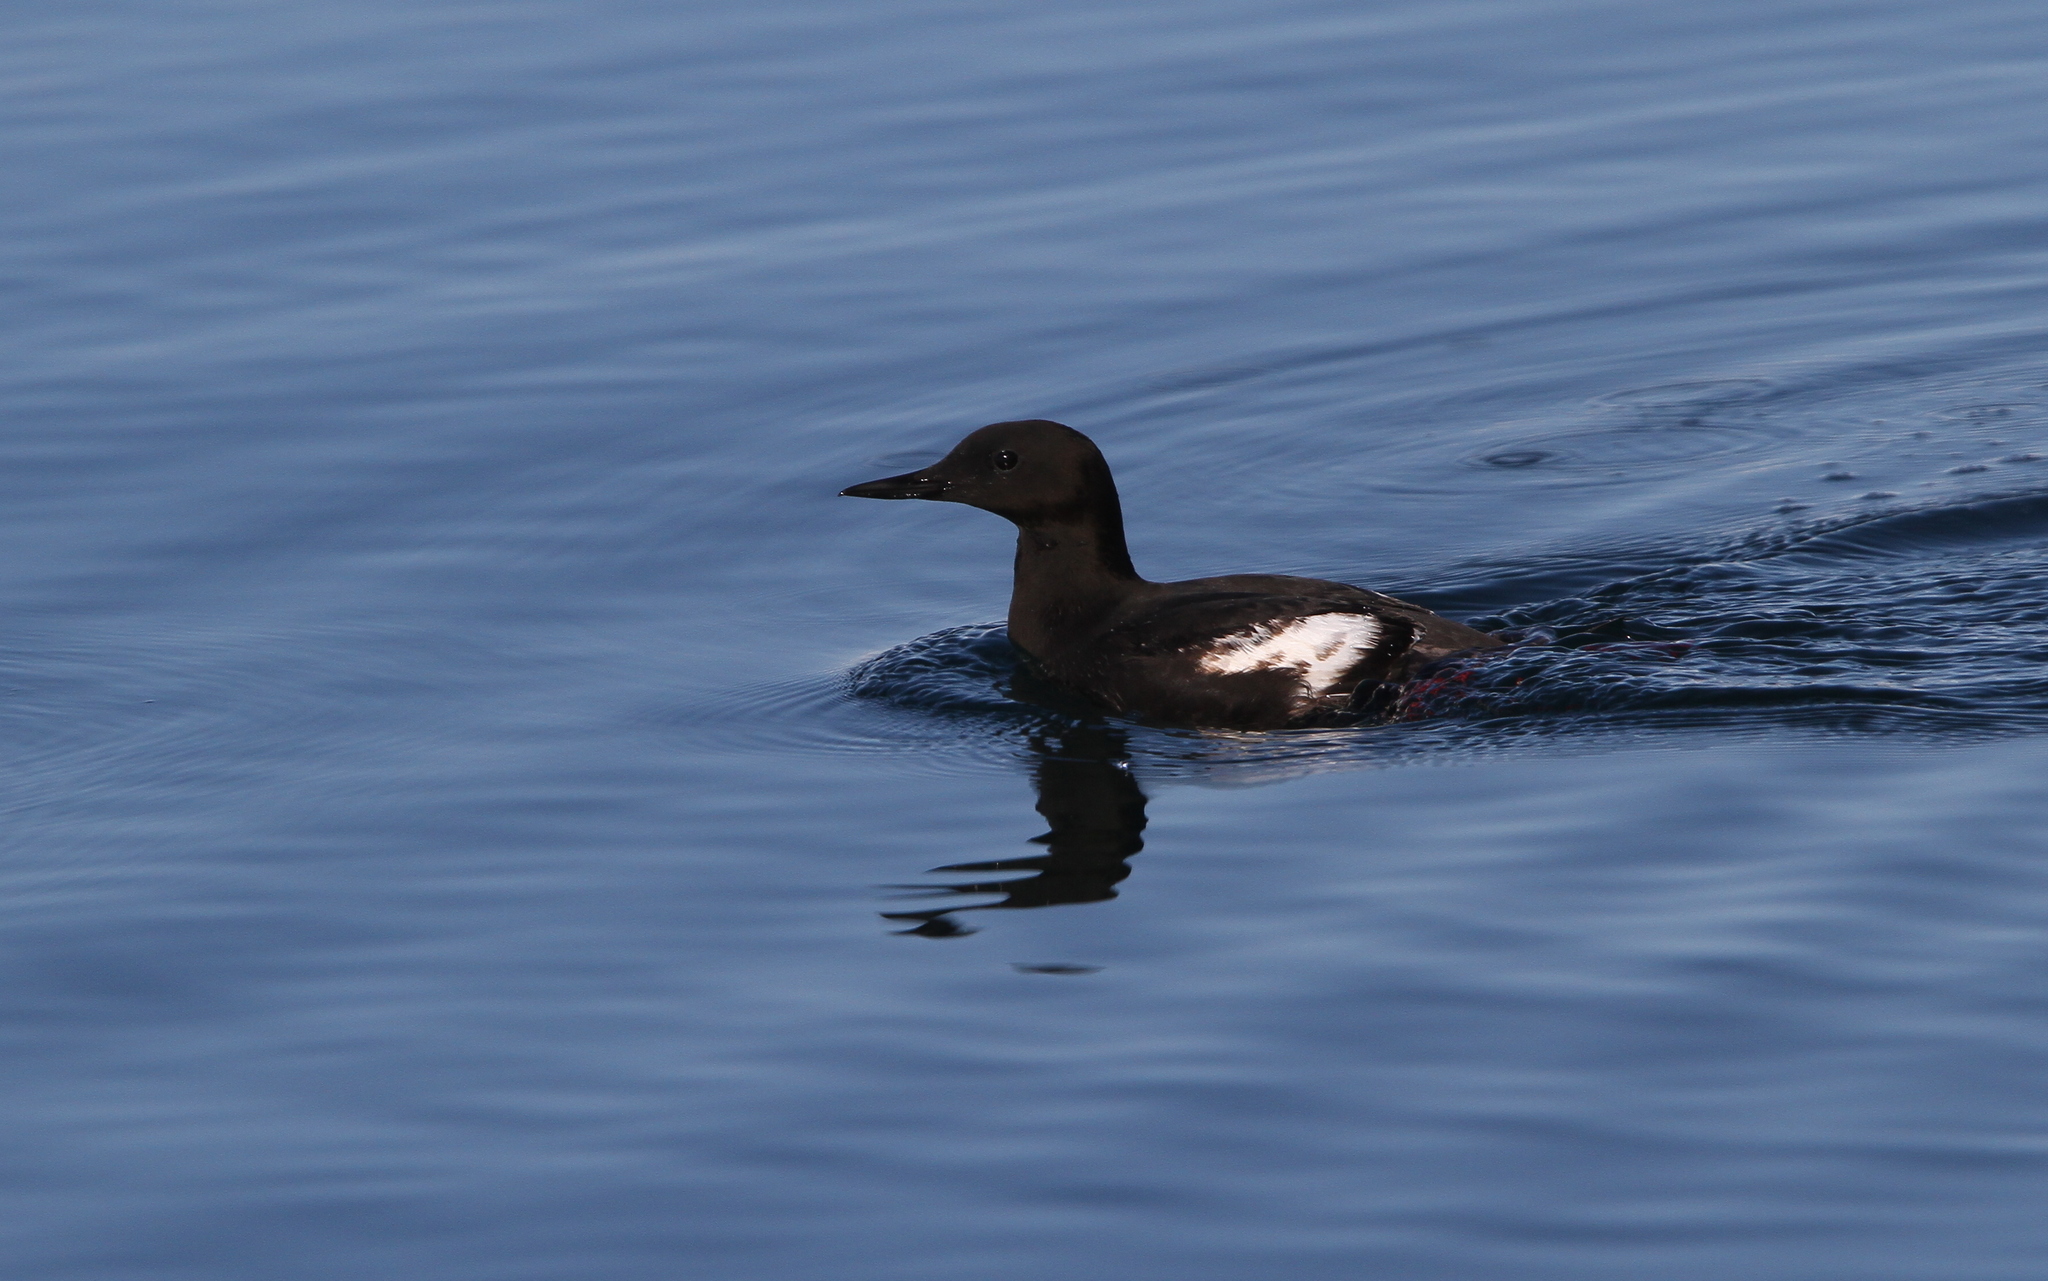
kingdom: Animalia
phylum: Chordata
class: Aves
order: Charadriiformes
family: Alcidae
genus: Cepphus
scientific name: Cepphus grylle
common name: Black guillemot
